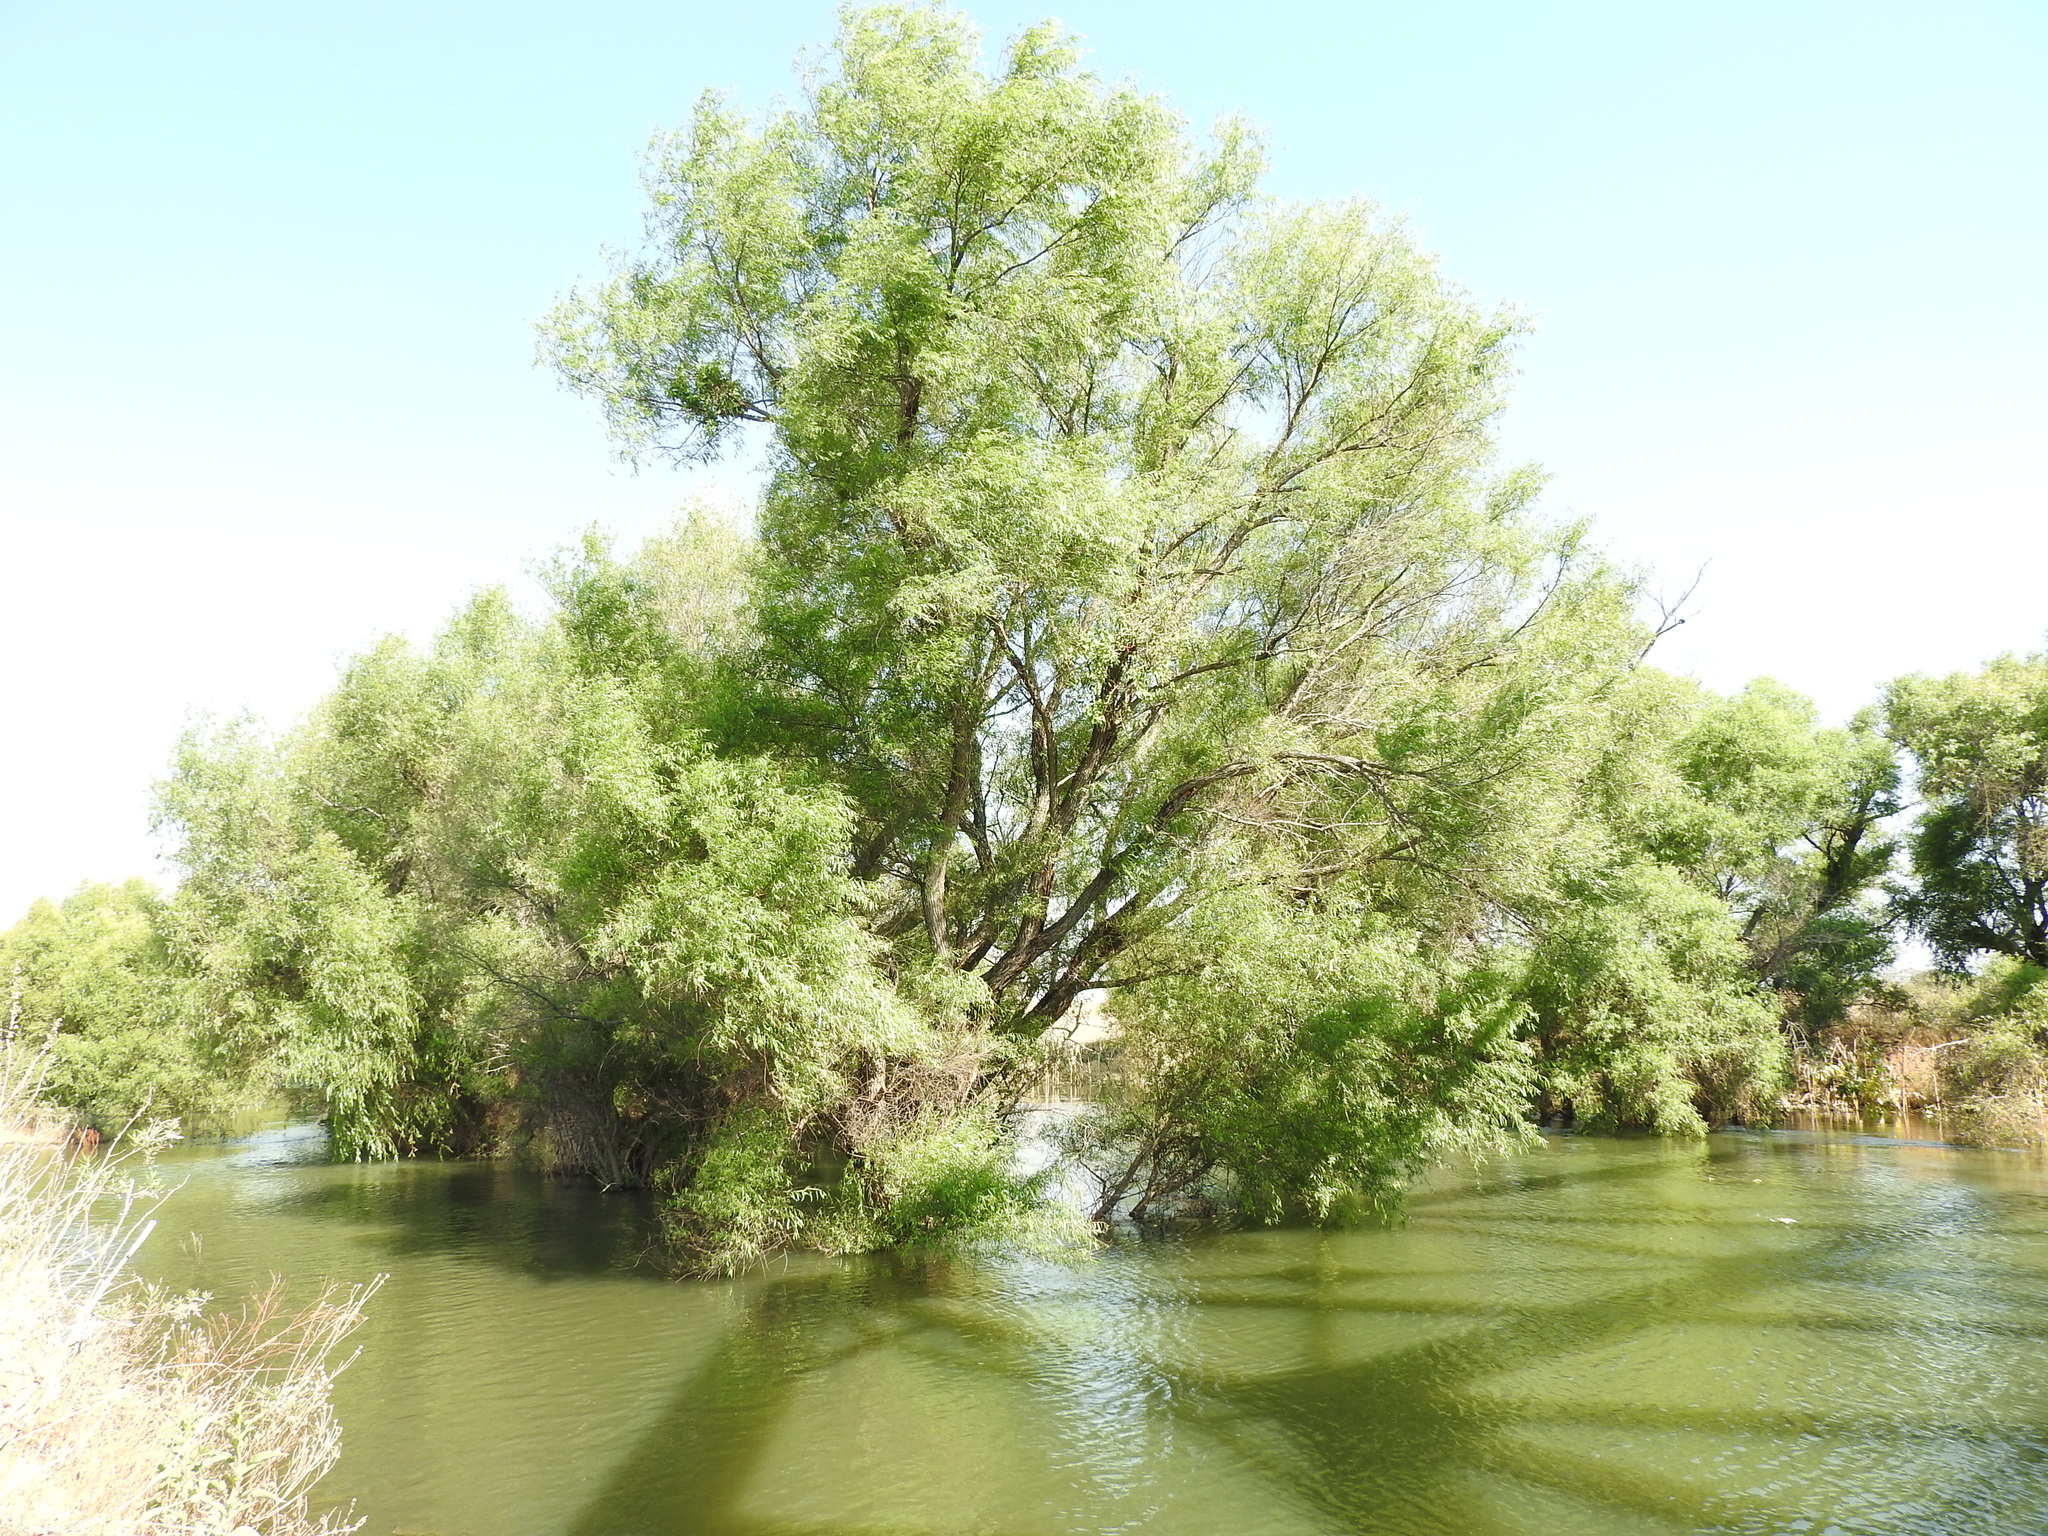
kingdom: Plantae
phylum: Tracheophyta
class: Magnoliopsida
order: Malpighiales
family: Salicaceae
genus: Salix
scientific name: Salix humboldtiana
